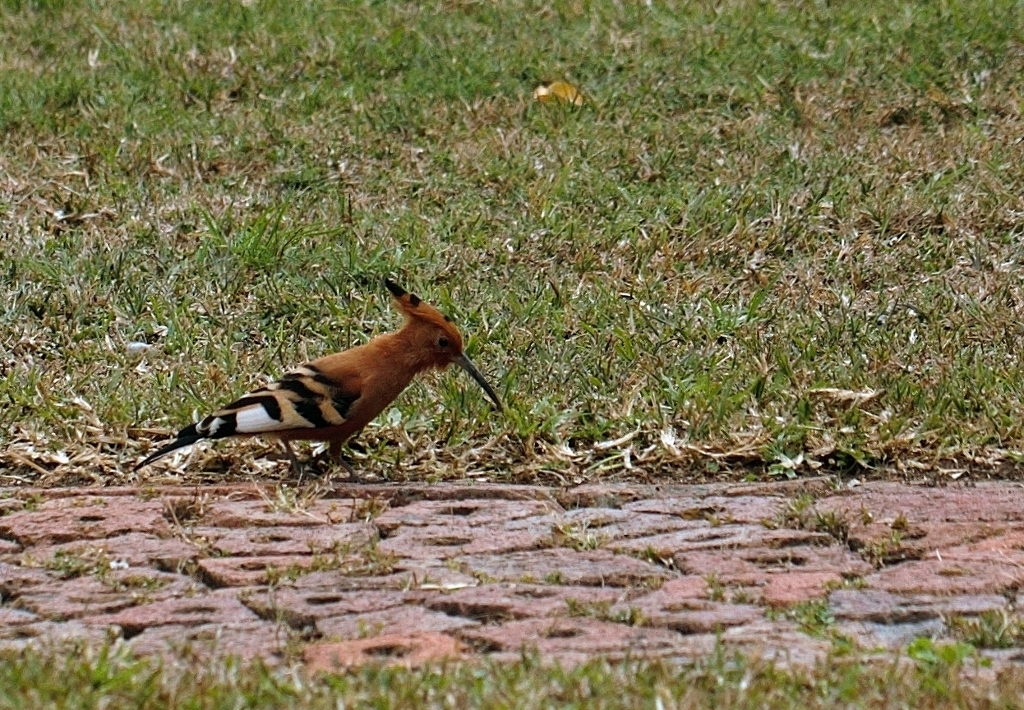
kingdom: Animalia
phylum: Chordata
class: Aves
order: Bucerotiformes
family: Upupidae
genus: Upupa
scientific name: Upupa africana
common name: African hoopoe
